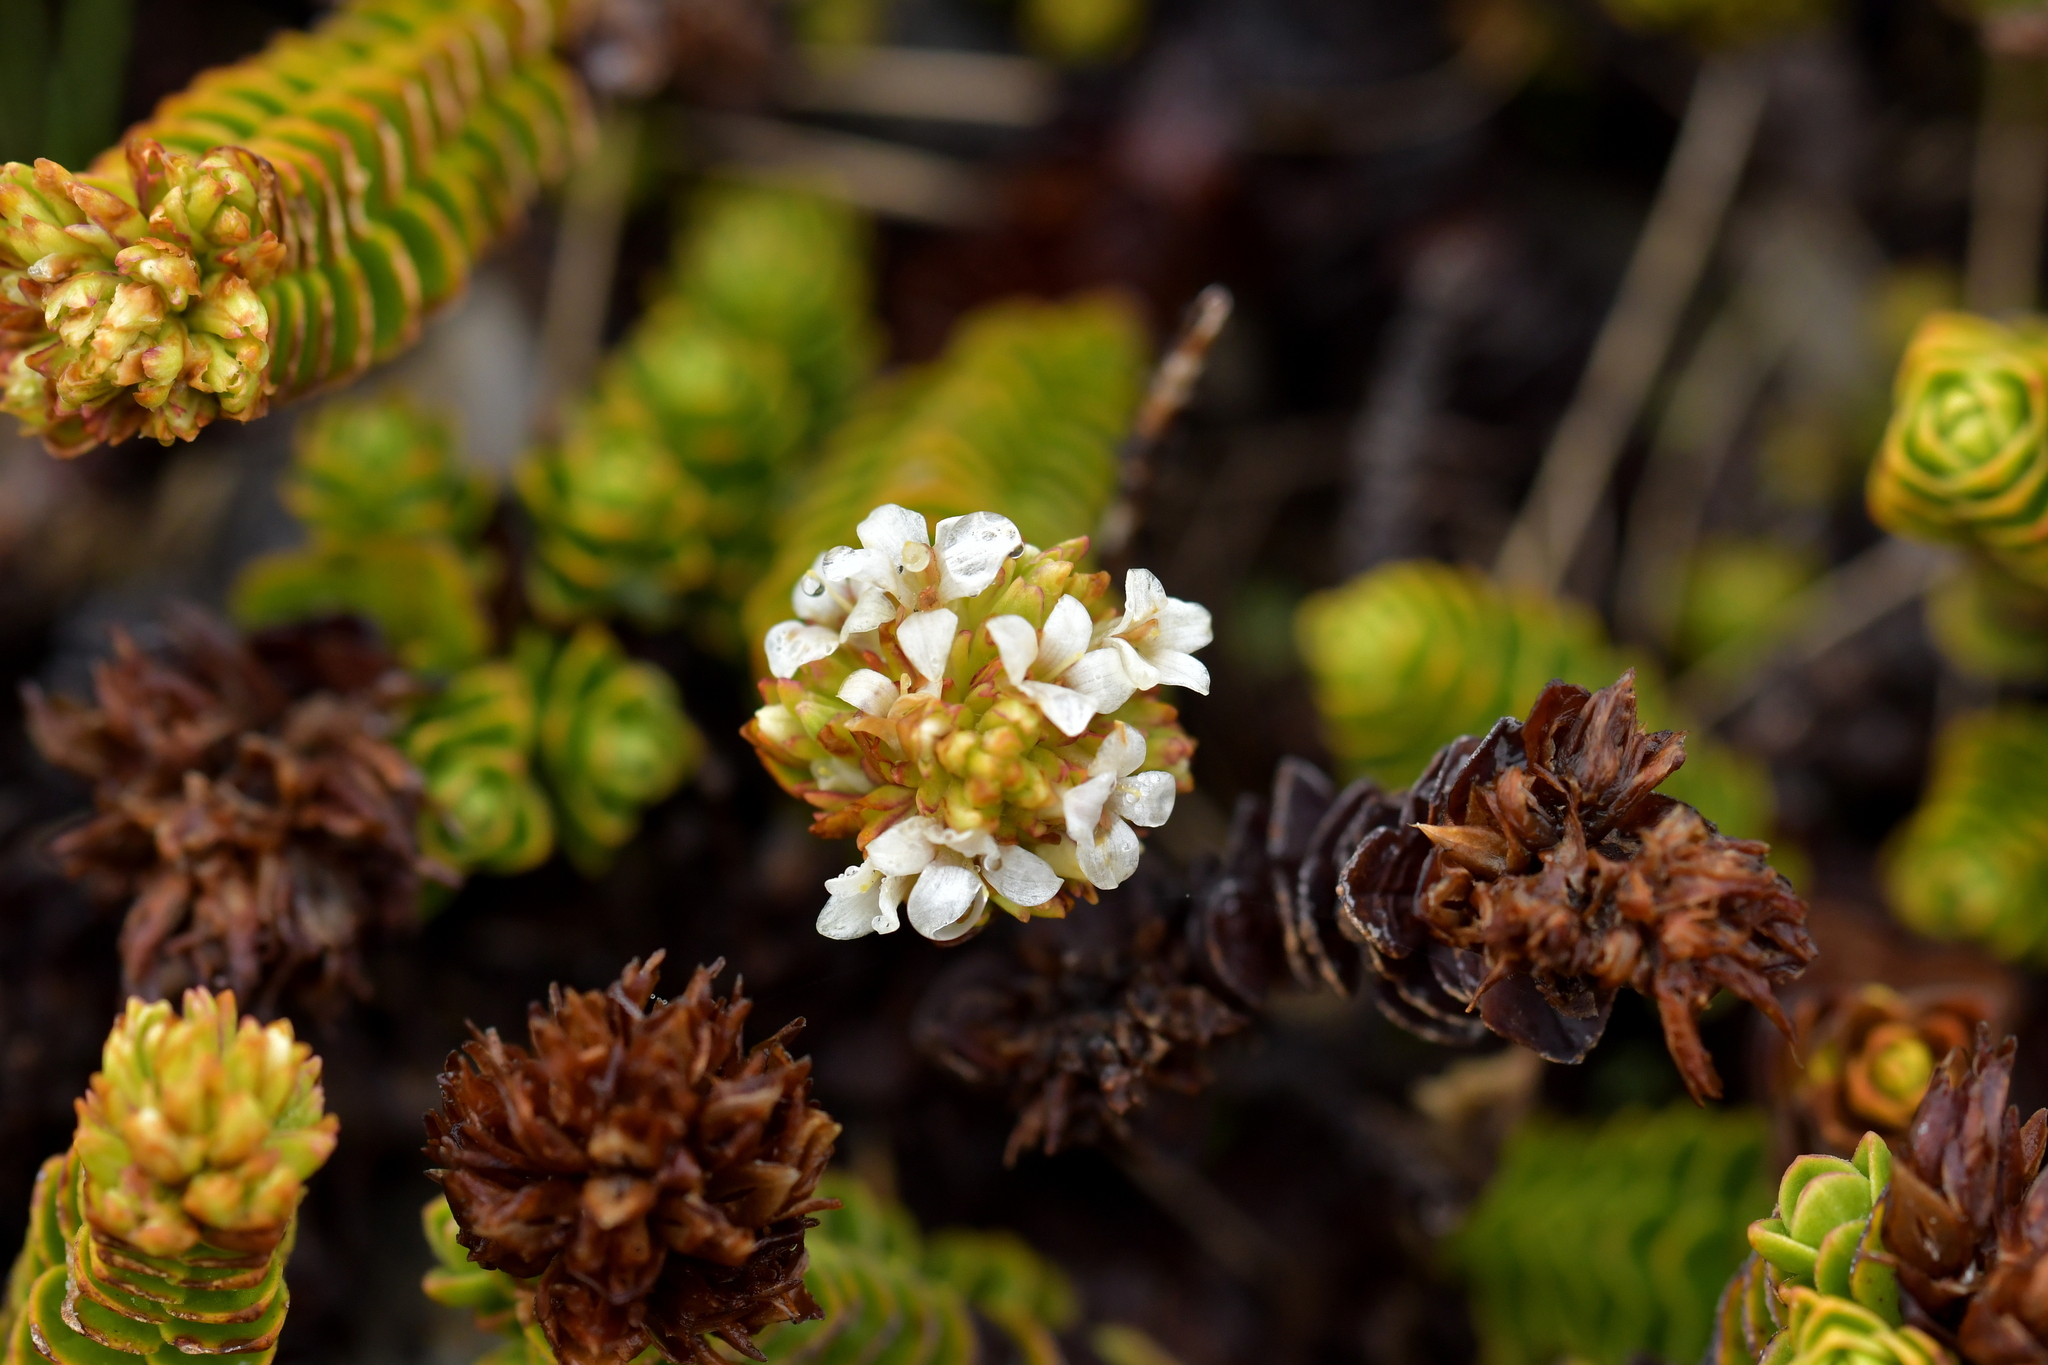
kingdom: Plantae
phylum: Tracheophyta
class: Magnoliopsida
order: Lamiales
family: Plantaginaceae
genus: Veronica
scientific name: Veronica macrocalyx
